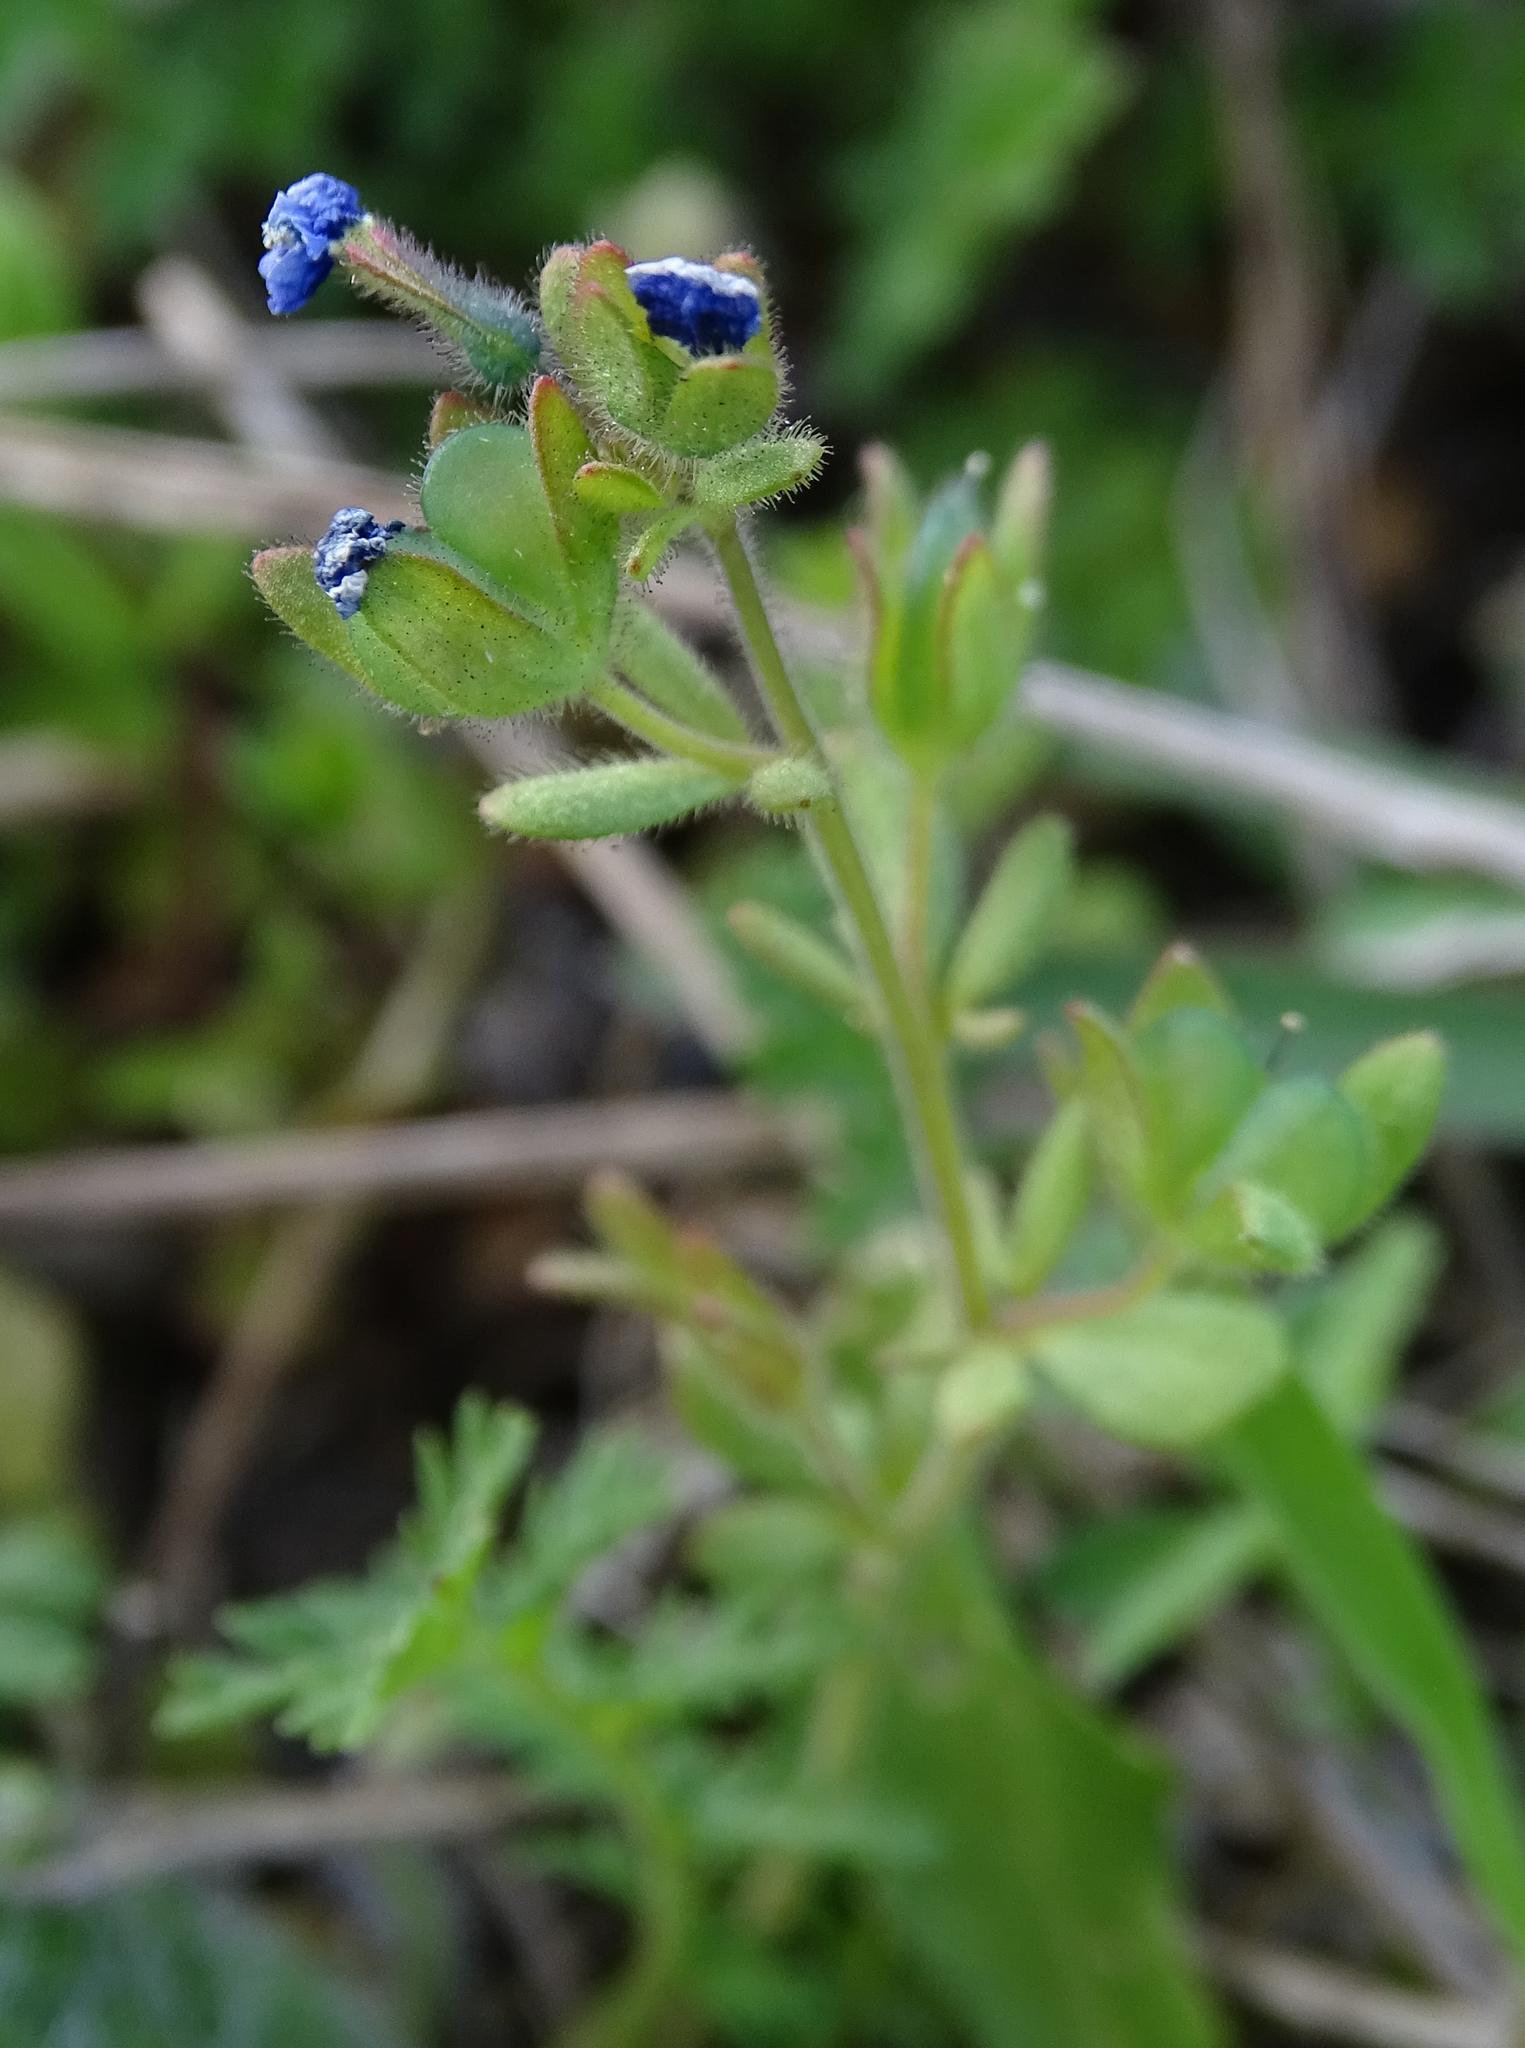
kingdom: Plantae
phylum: Tracheophyta
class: Magnoliopsida
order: Lamiales
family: Plantaginaceae
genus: Veronica
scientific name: Veronica triphyllos
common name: Fingered speedwell
